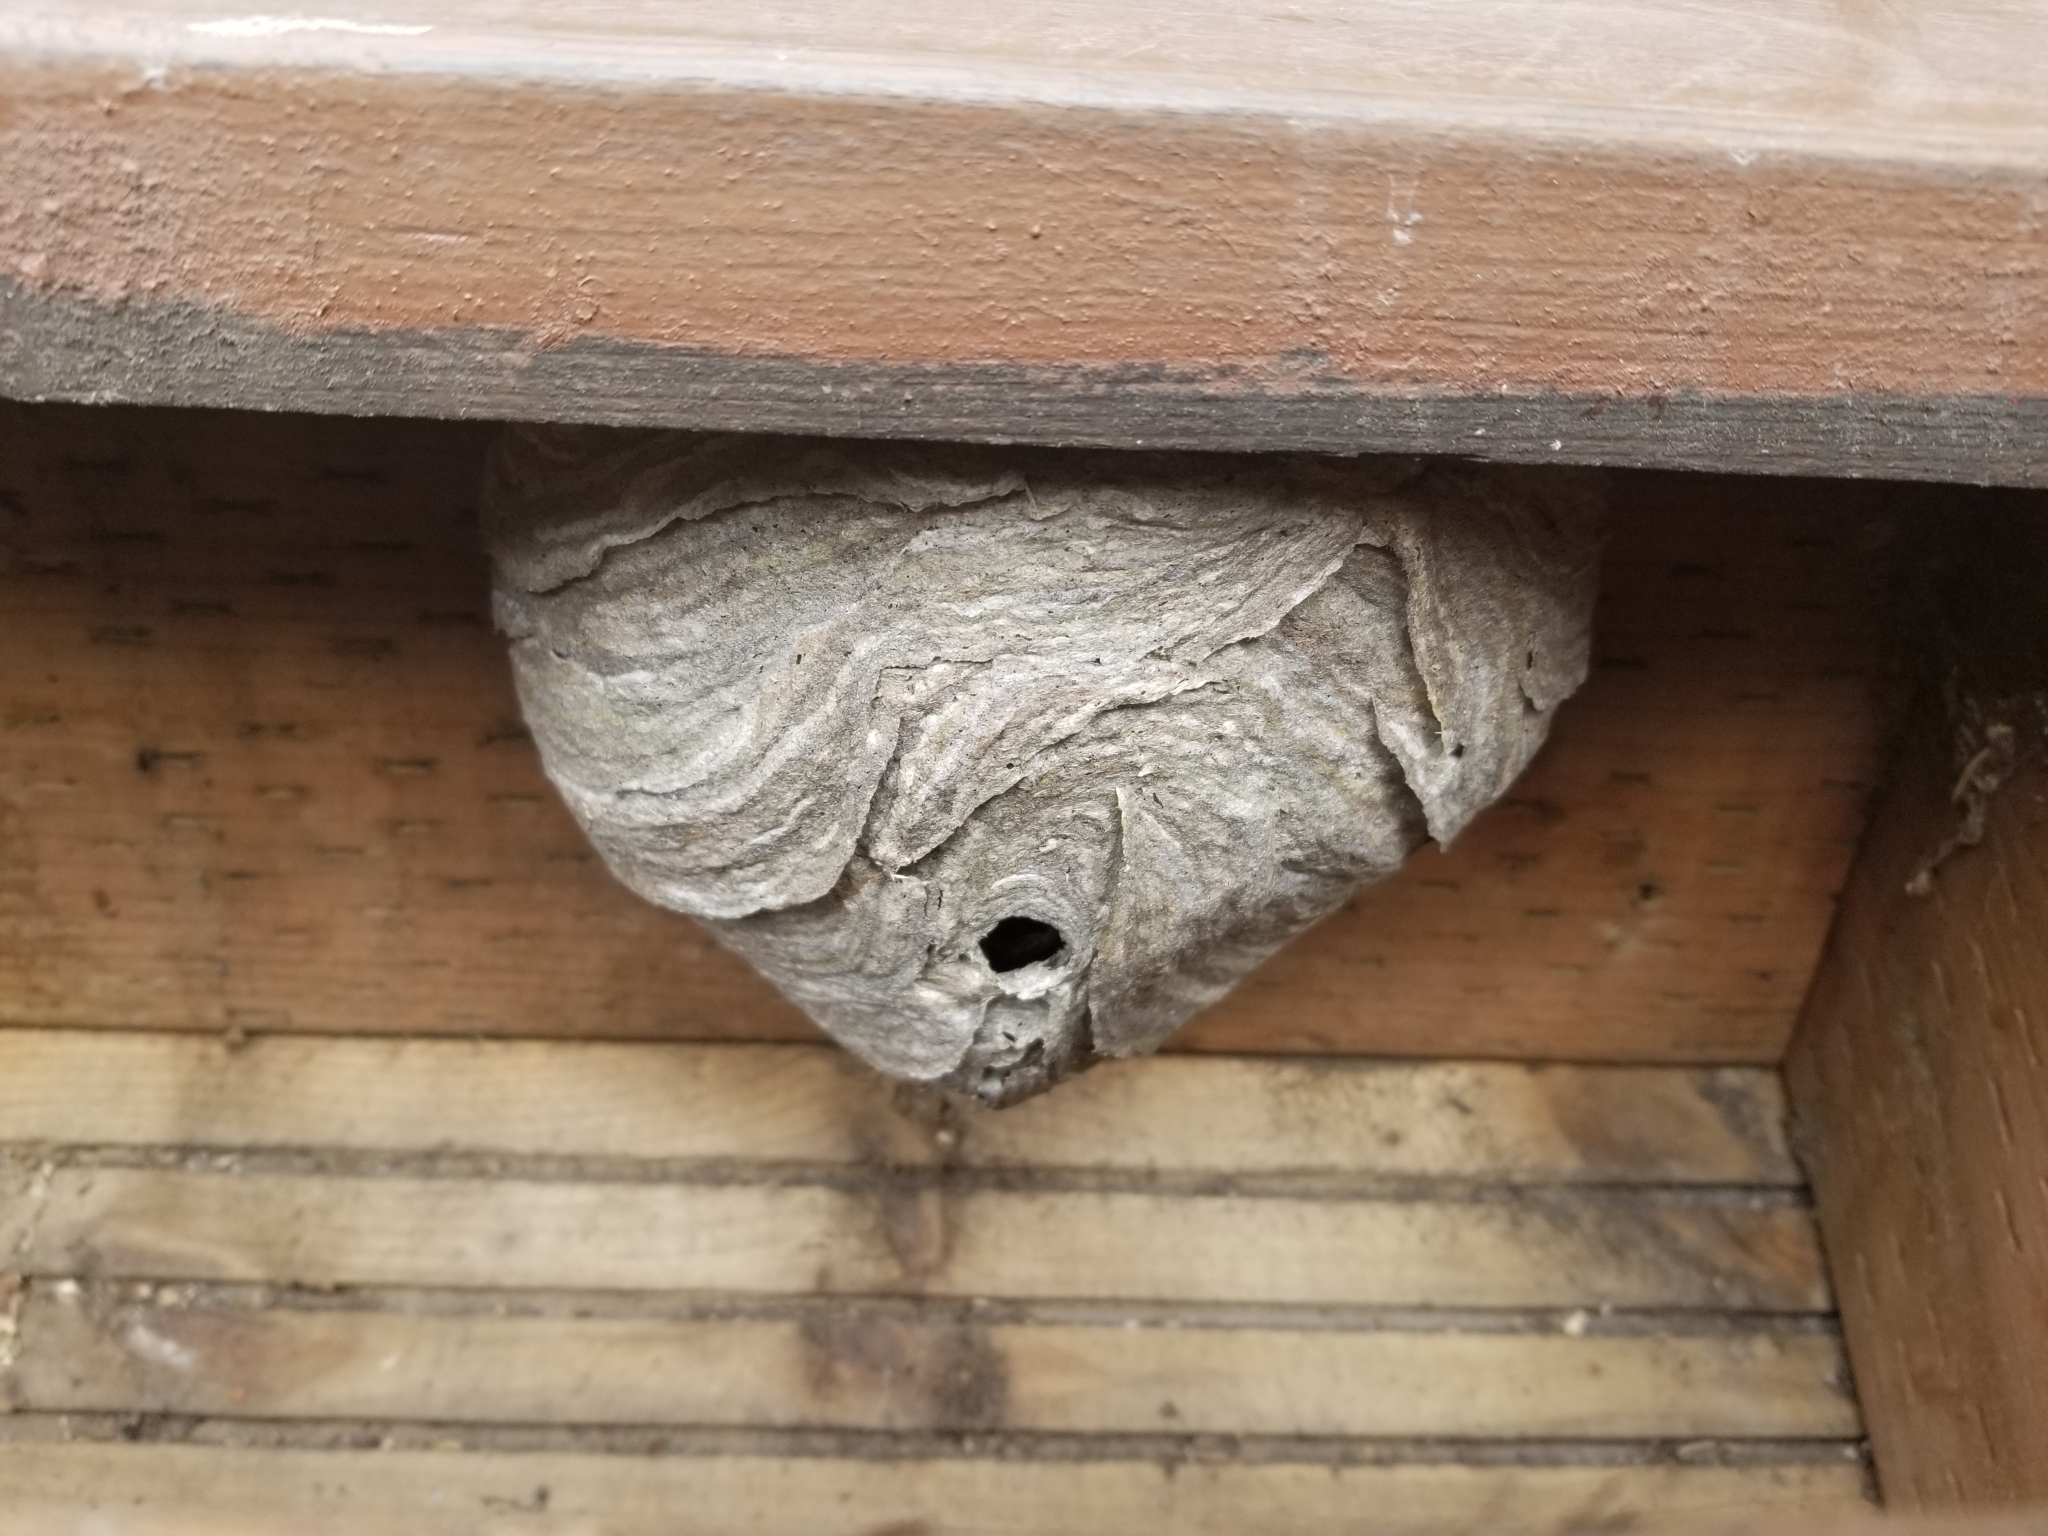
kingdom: Animalia
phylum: Arthropoda
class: Insecta
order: Hymenoptera
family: Vespidae
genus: Dolichovespula
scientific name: Dolichovespula arenaria
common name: Aerial yellowjacket
